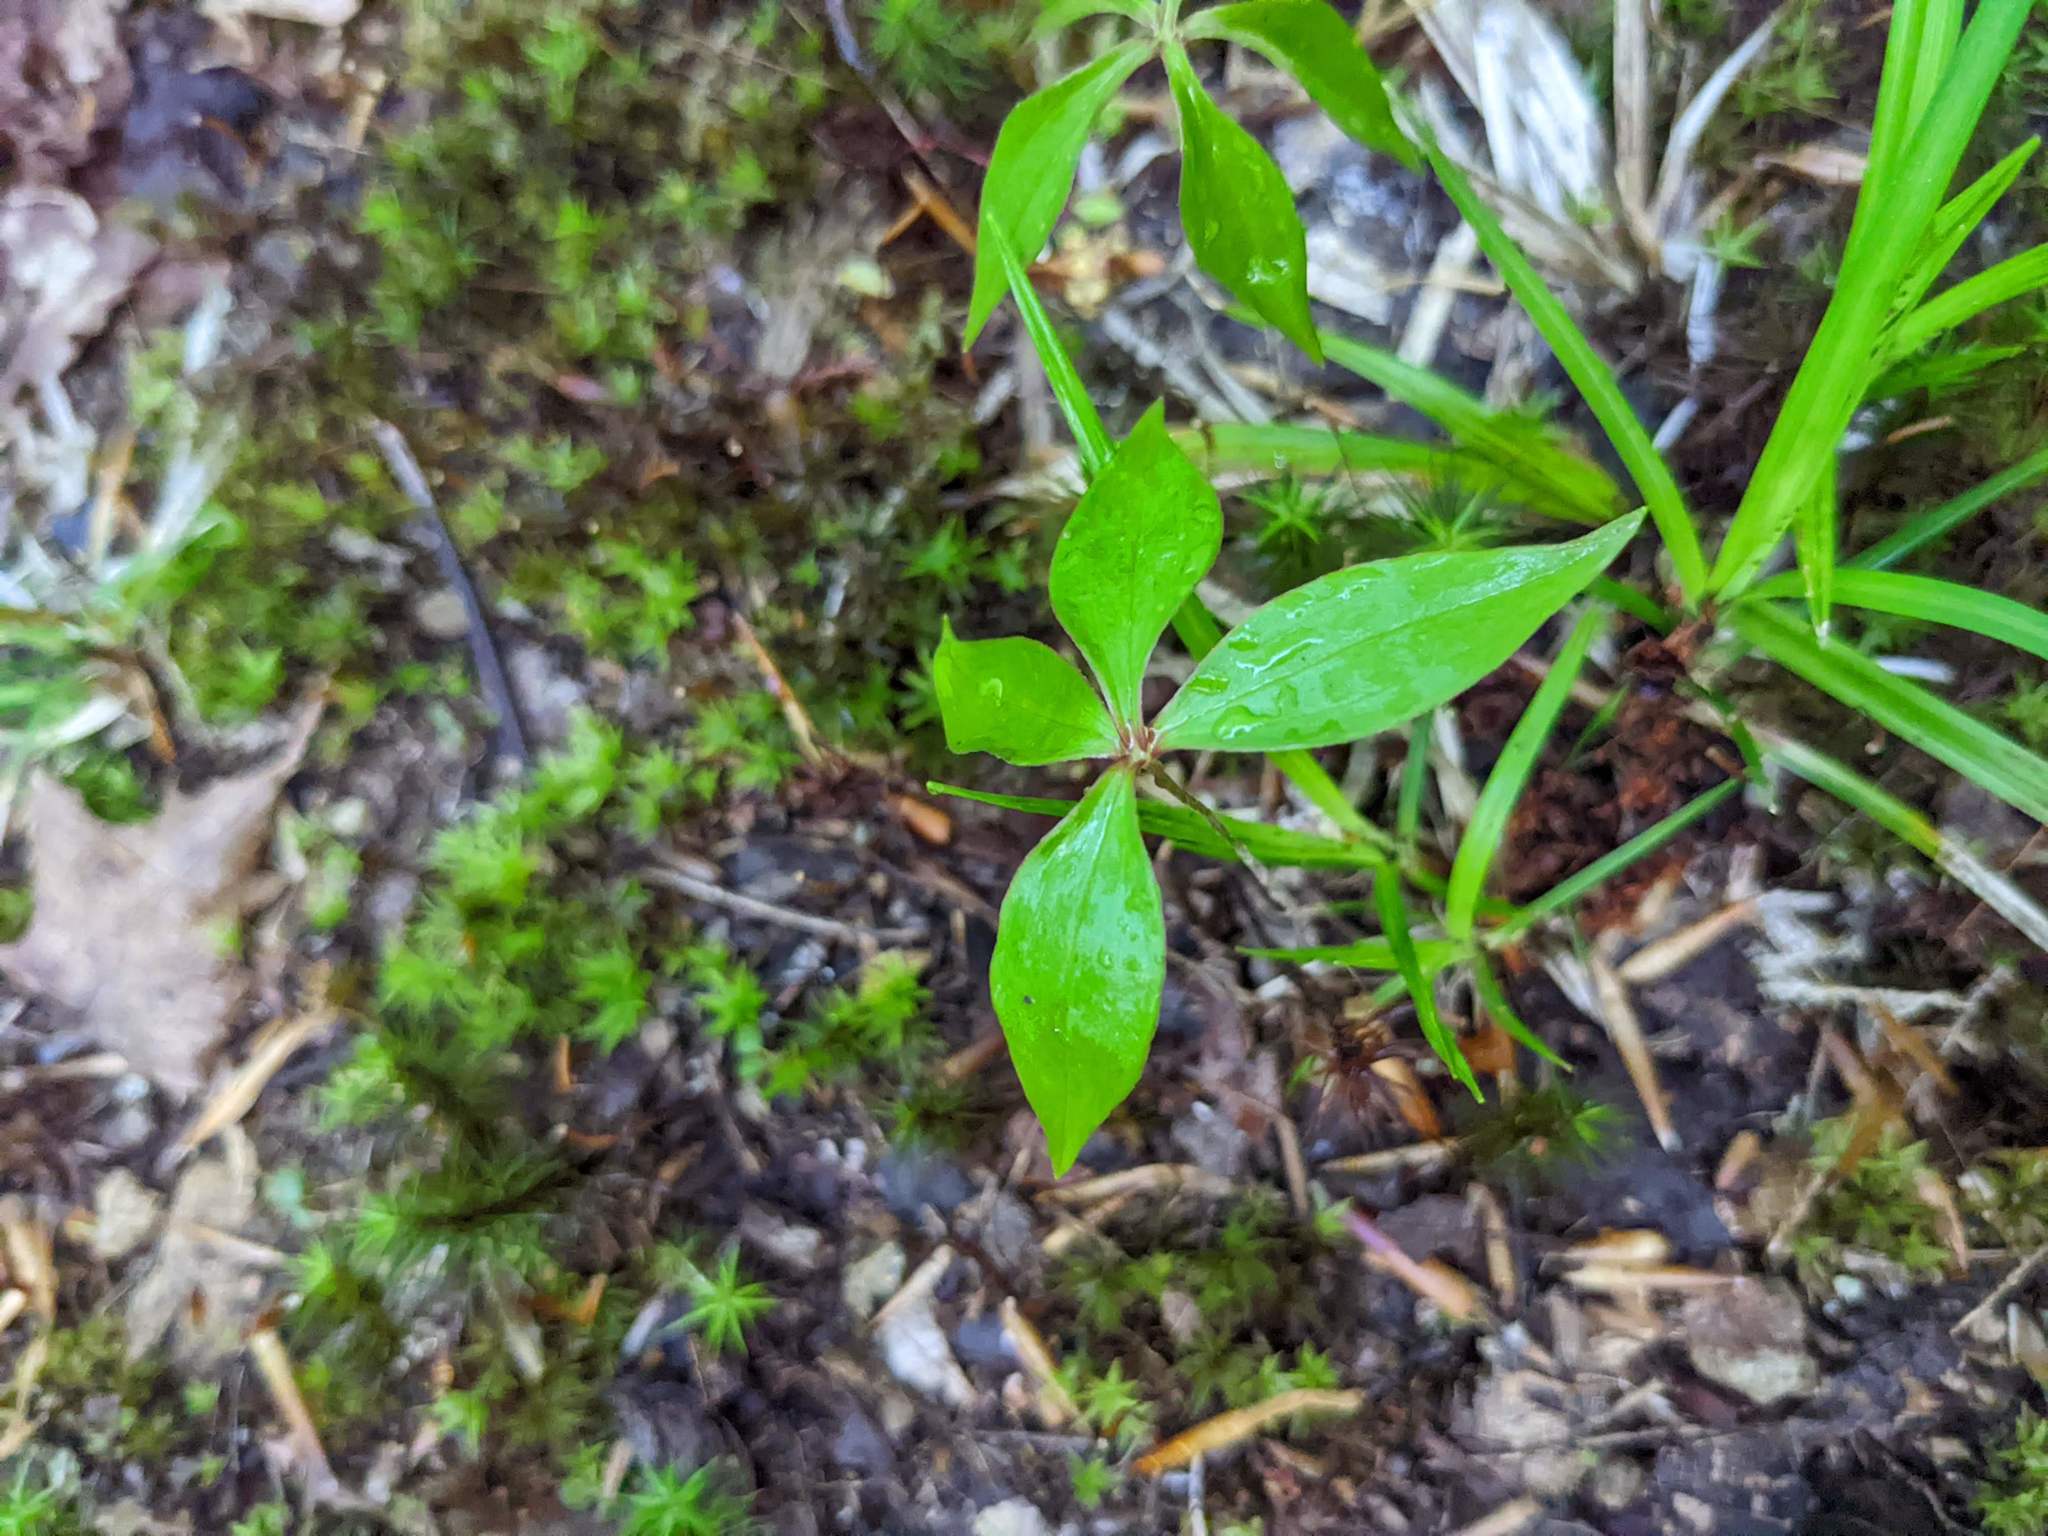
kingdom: Plantae
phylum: Tracheophyta
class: Liliopsida
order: Liliales
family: Liliaceae
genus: Medeola
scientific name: Medeola virginiana
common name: Indian cucumber-root
